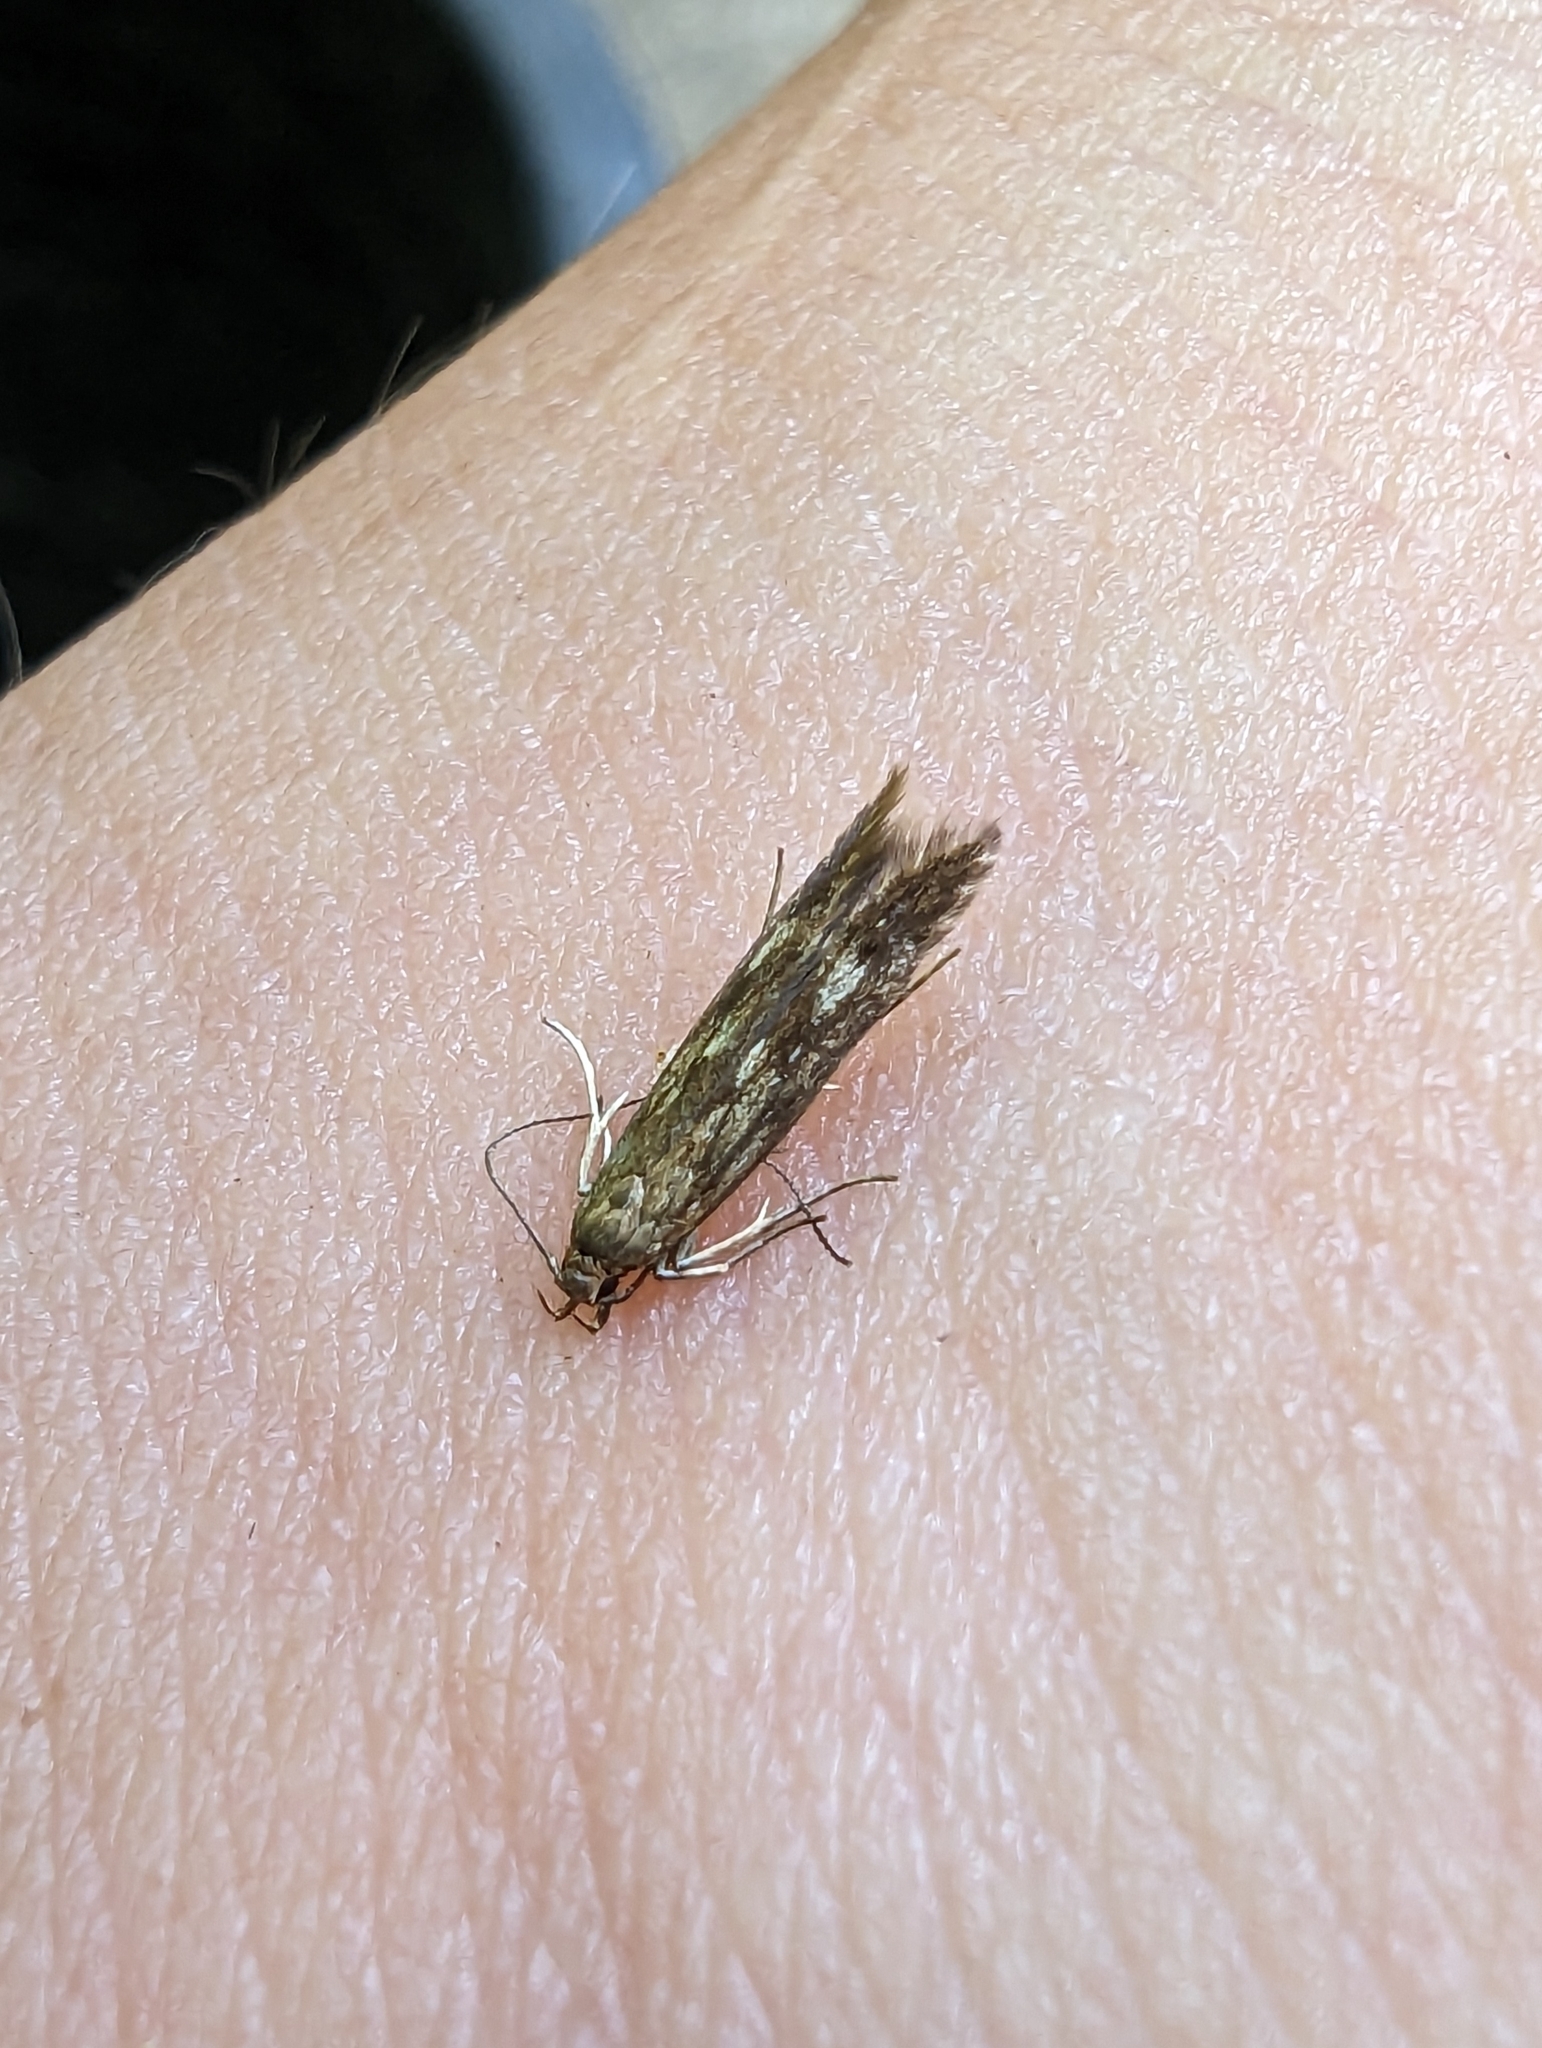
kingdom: Animalia
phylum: Arthropoda
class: Insecta
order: Lepidoptera
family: Gelechiidae
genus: Monochroa
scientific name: Monochroa lucidella
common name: Buff-marked neb
